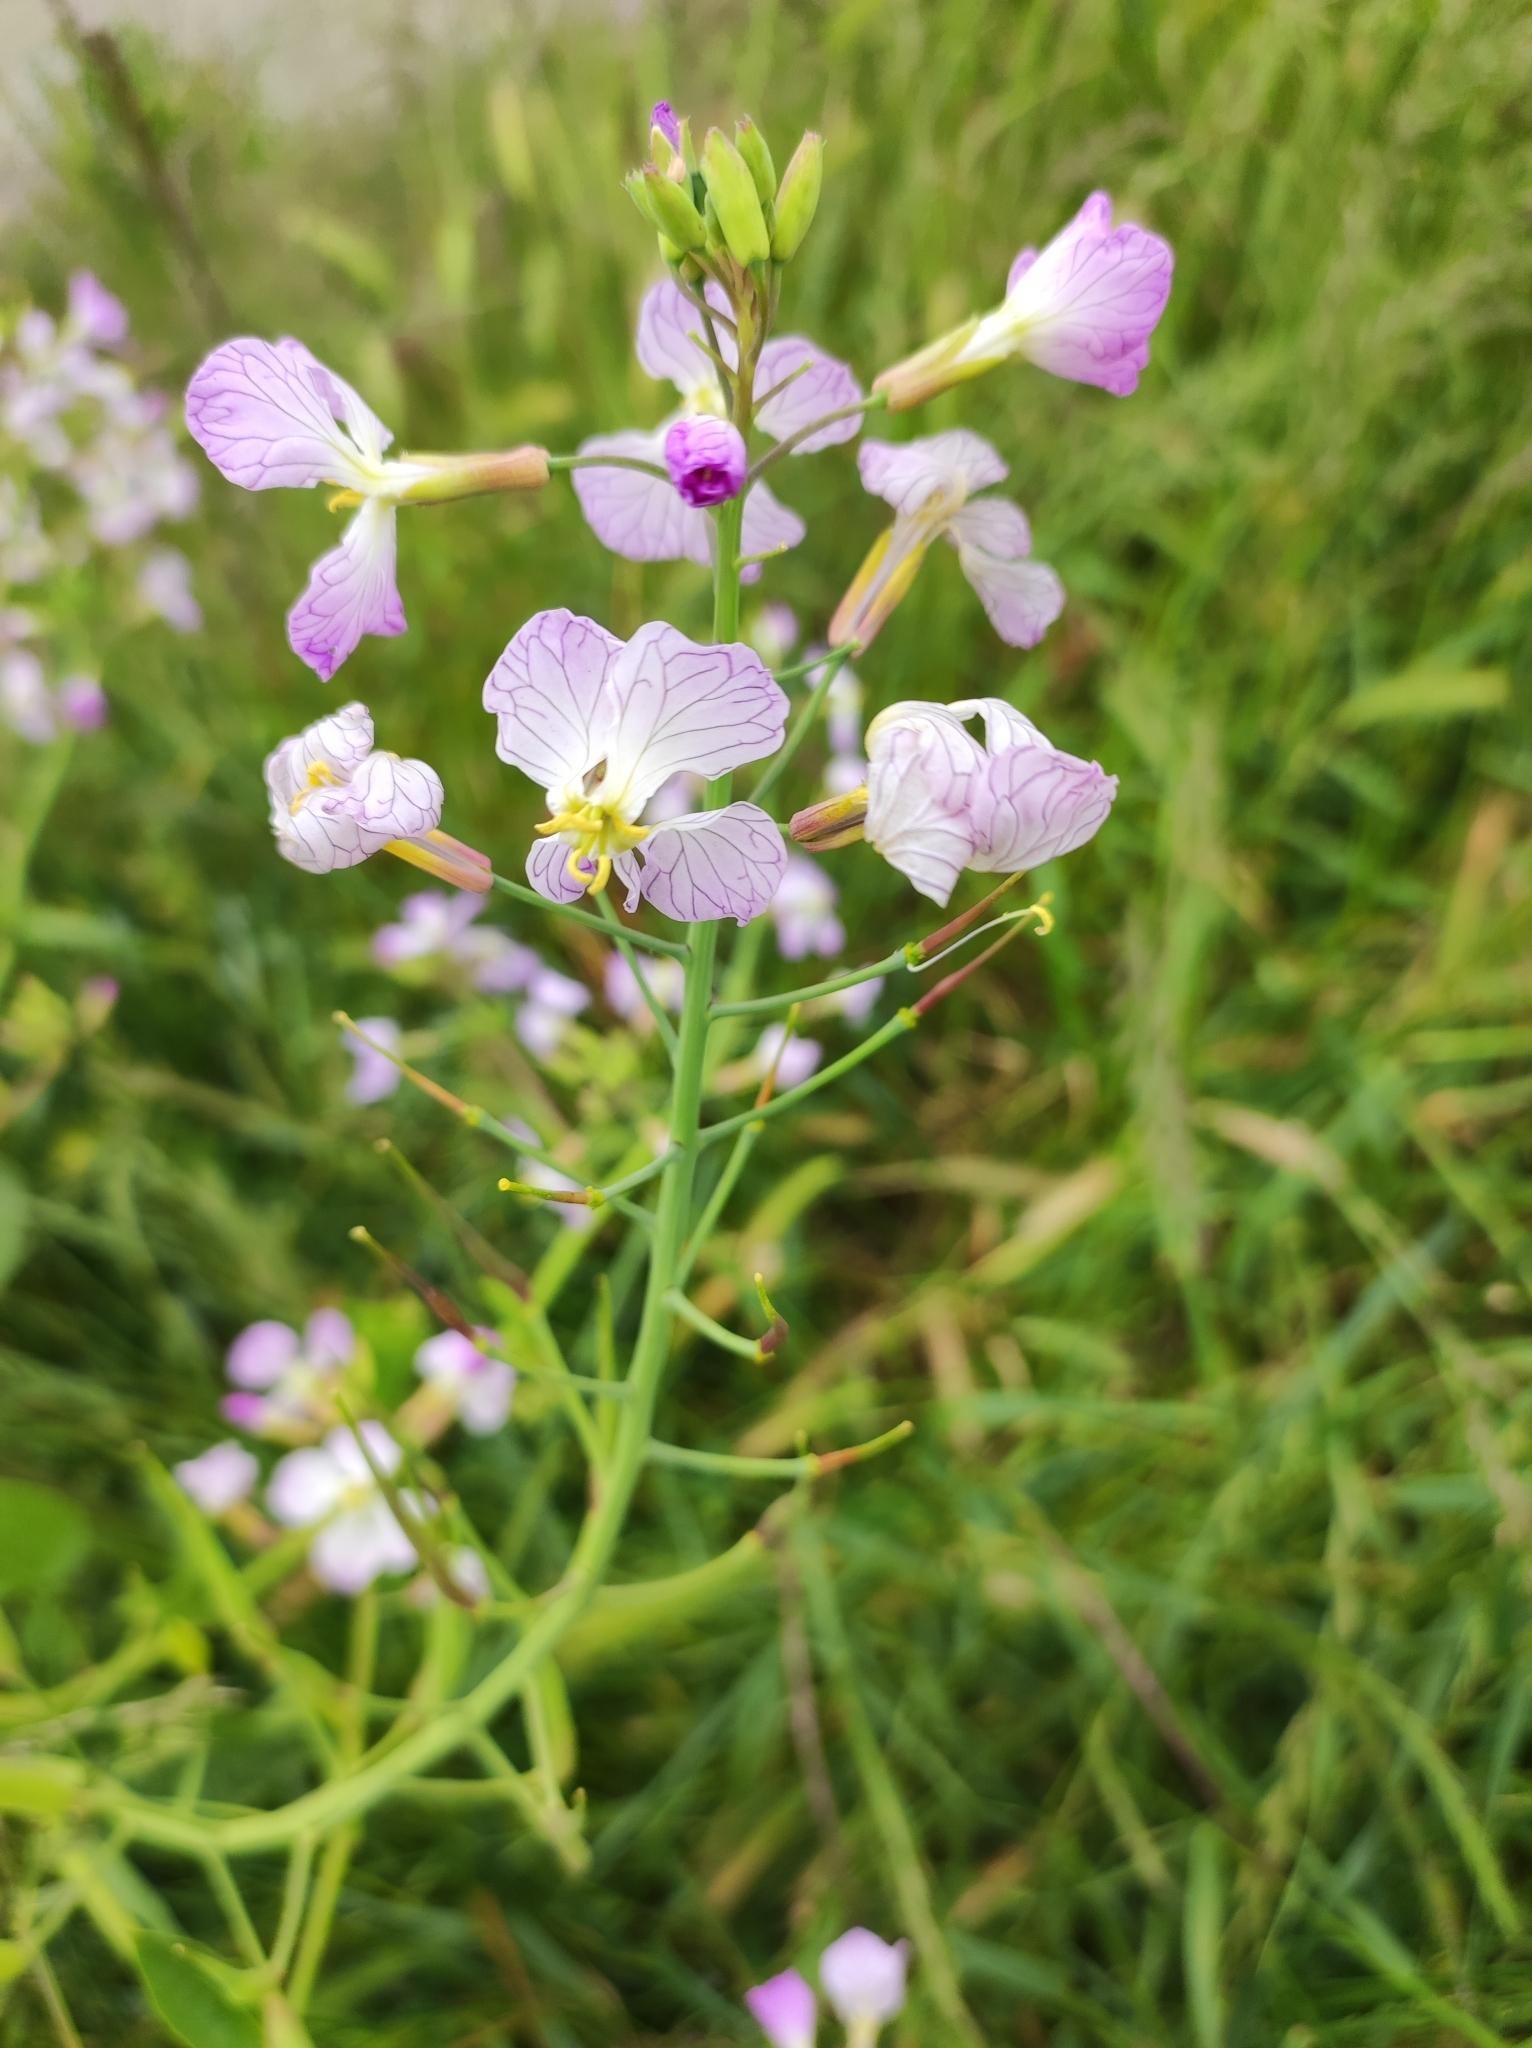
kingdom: Plantae
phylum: Tracheophyta
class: Magnoliopsida
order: Brassicales
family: Brassicaceae
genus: Raphanus
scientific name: Raphanus sativus
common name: Cultivated radish
